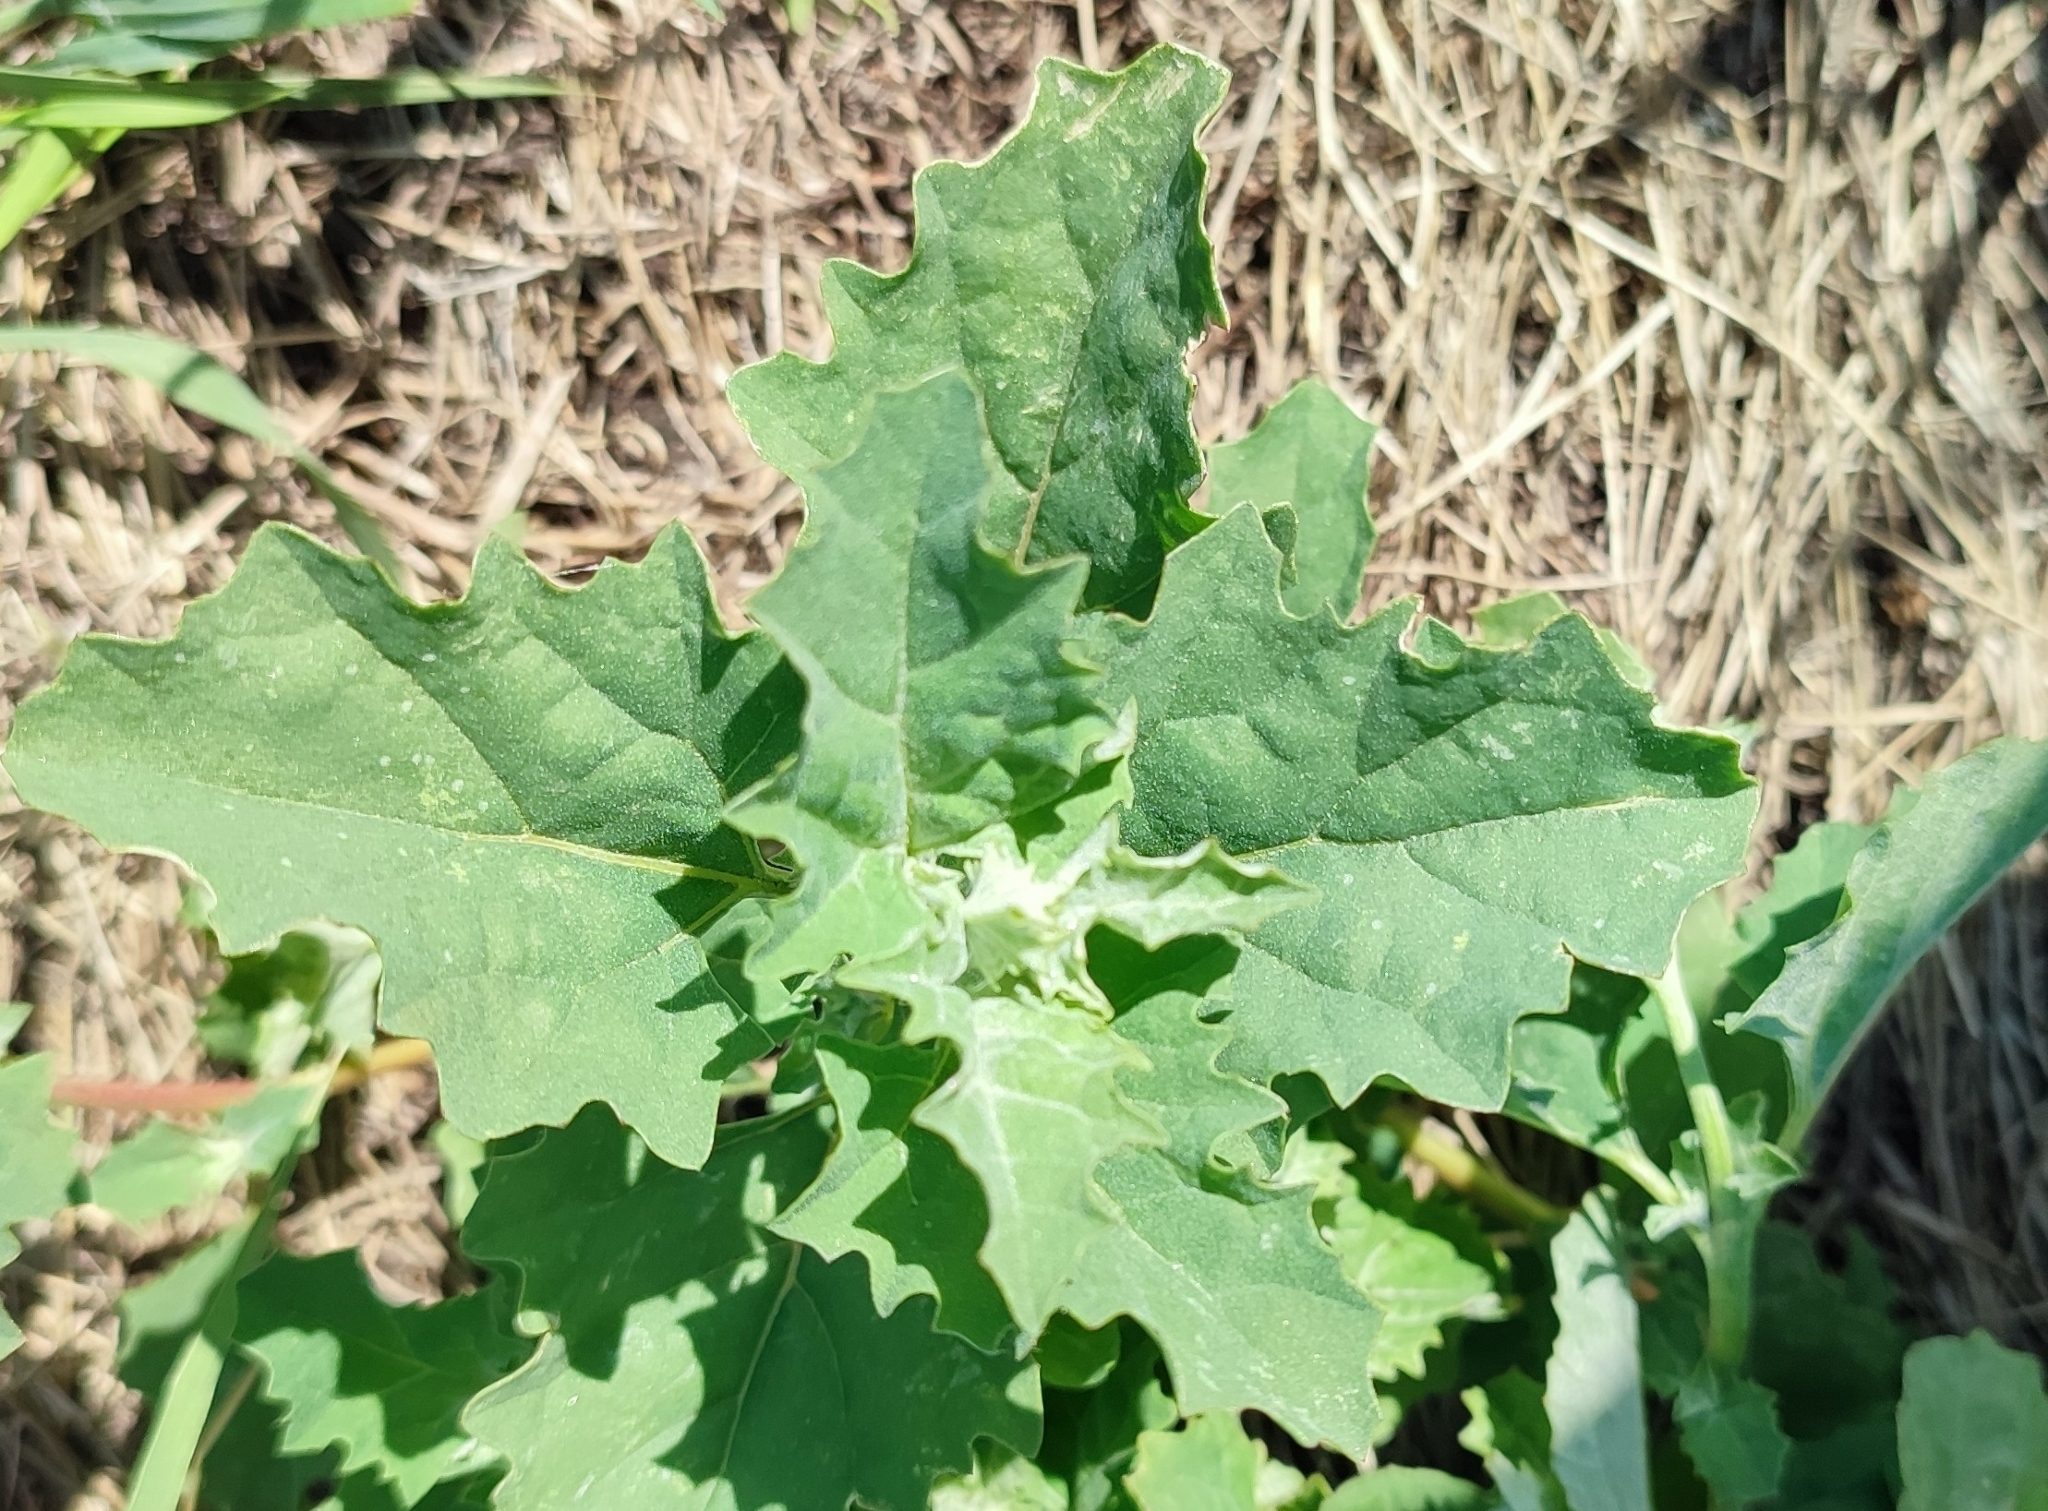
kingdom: Plantae
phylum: Tracheophyta
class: Magnoliopsida
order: Caryophyllales
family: Amaranthaceae
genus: Atriplex
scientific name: Atriplex tatarica
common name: Tatarian orache
